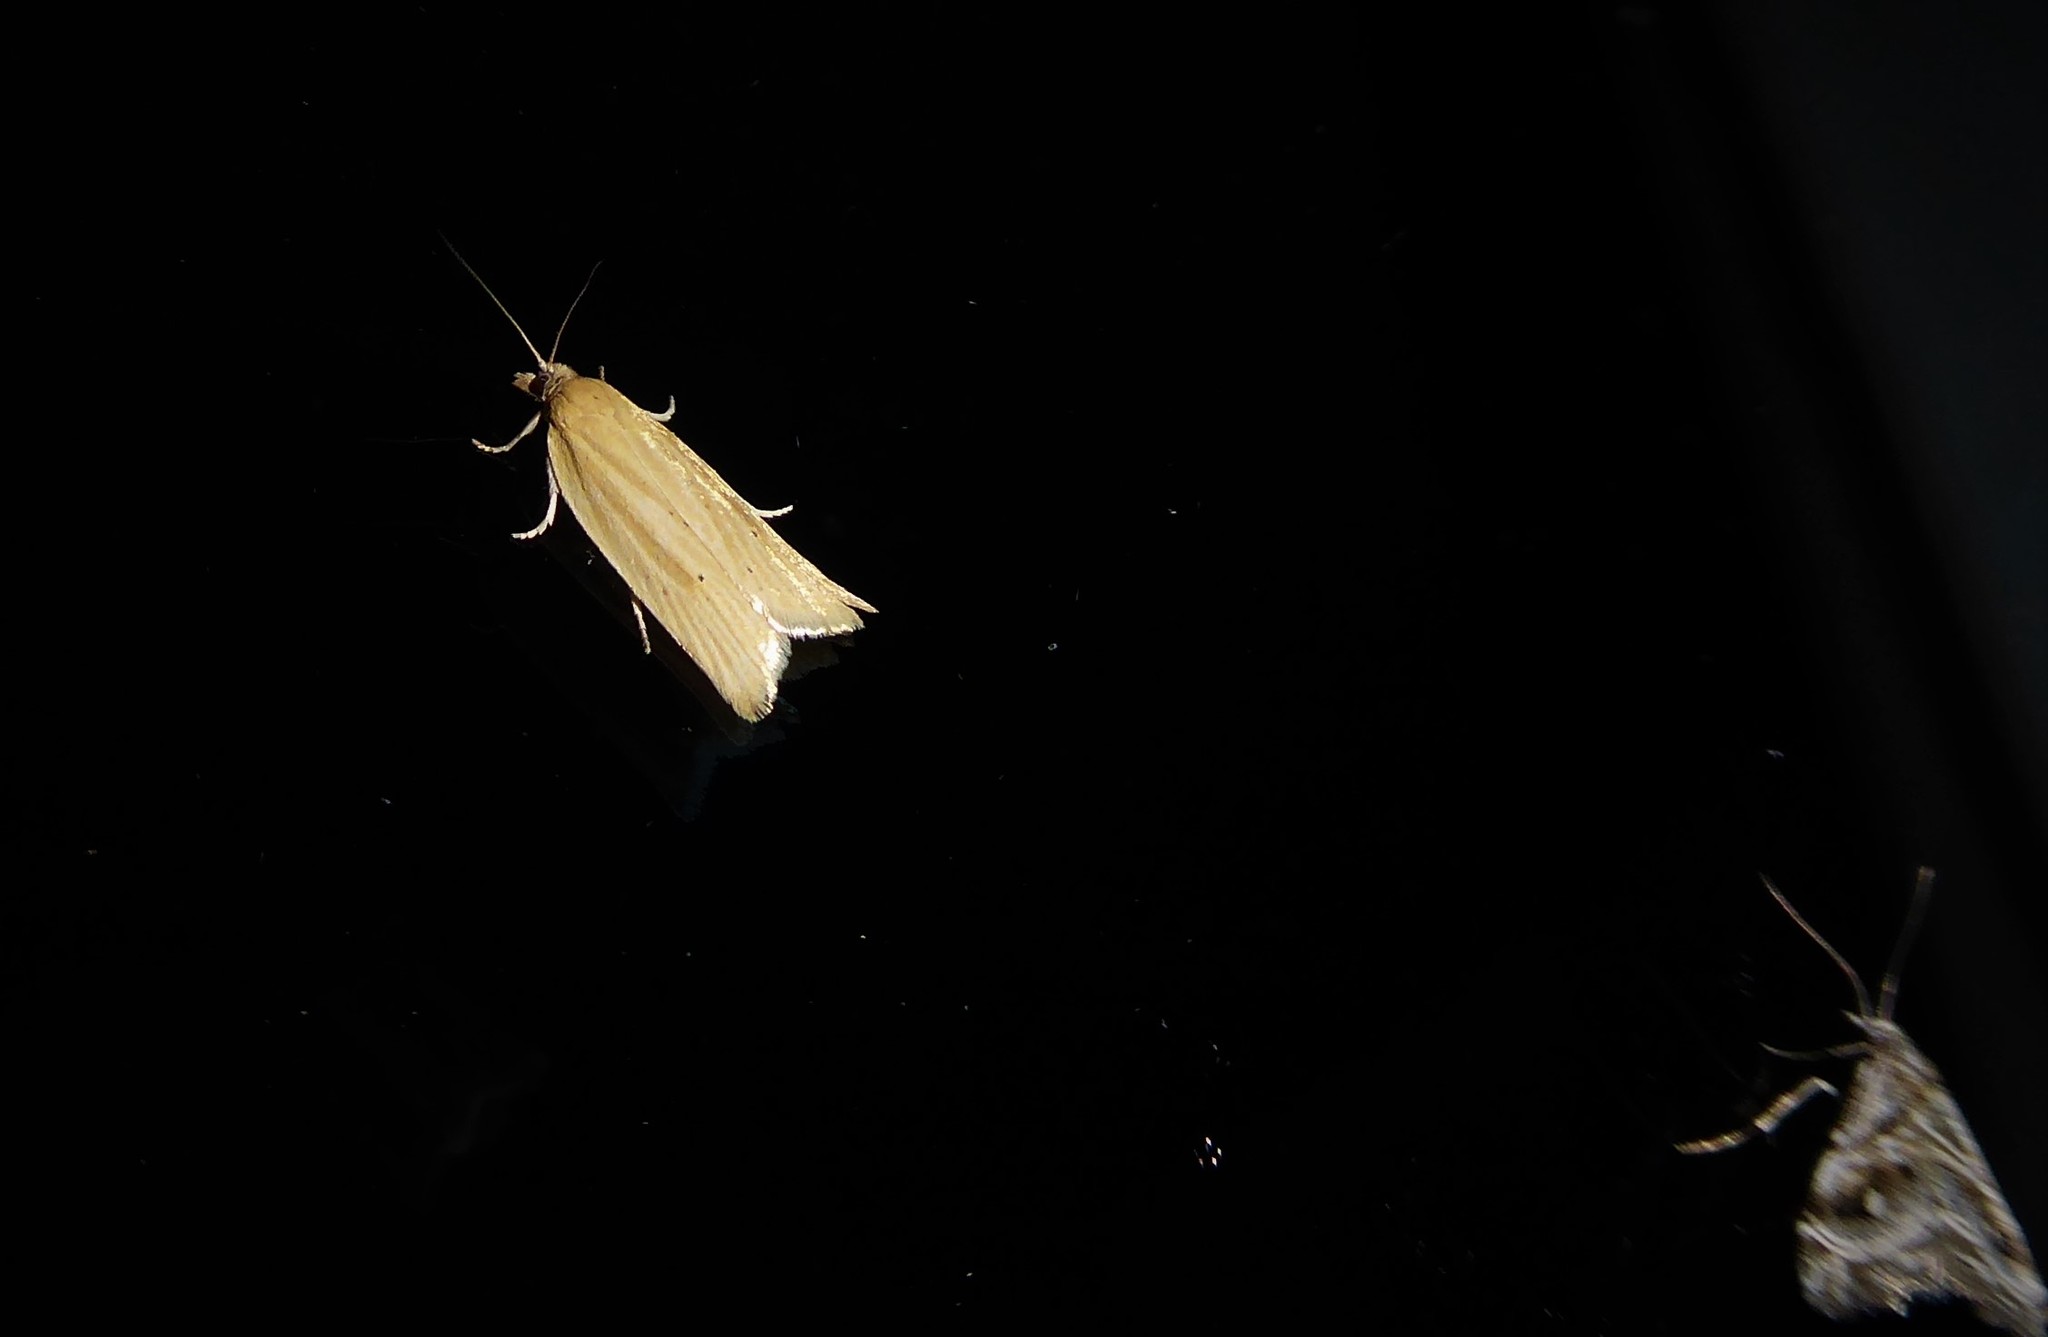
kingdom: Animalia
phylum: Arthropoda
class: Insecta
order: Lepidoptera
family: Tortricidae
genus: Clepsis
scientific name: Clepsis
